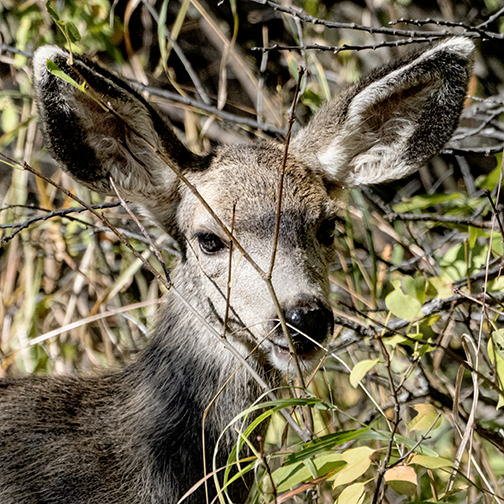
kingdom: Animalia
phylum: Chordata
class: Mammalia
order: Artiodactyla
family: Cervidae
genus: Odocoileus
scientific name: Odocoileus hemionus
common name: Mule deer
